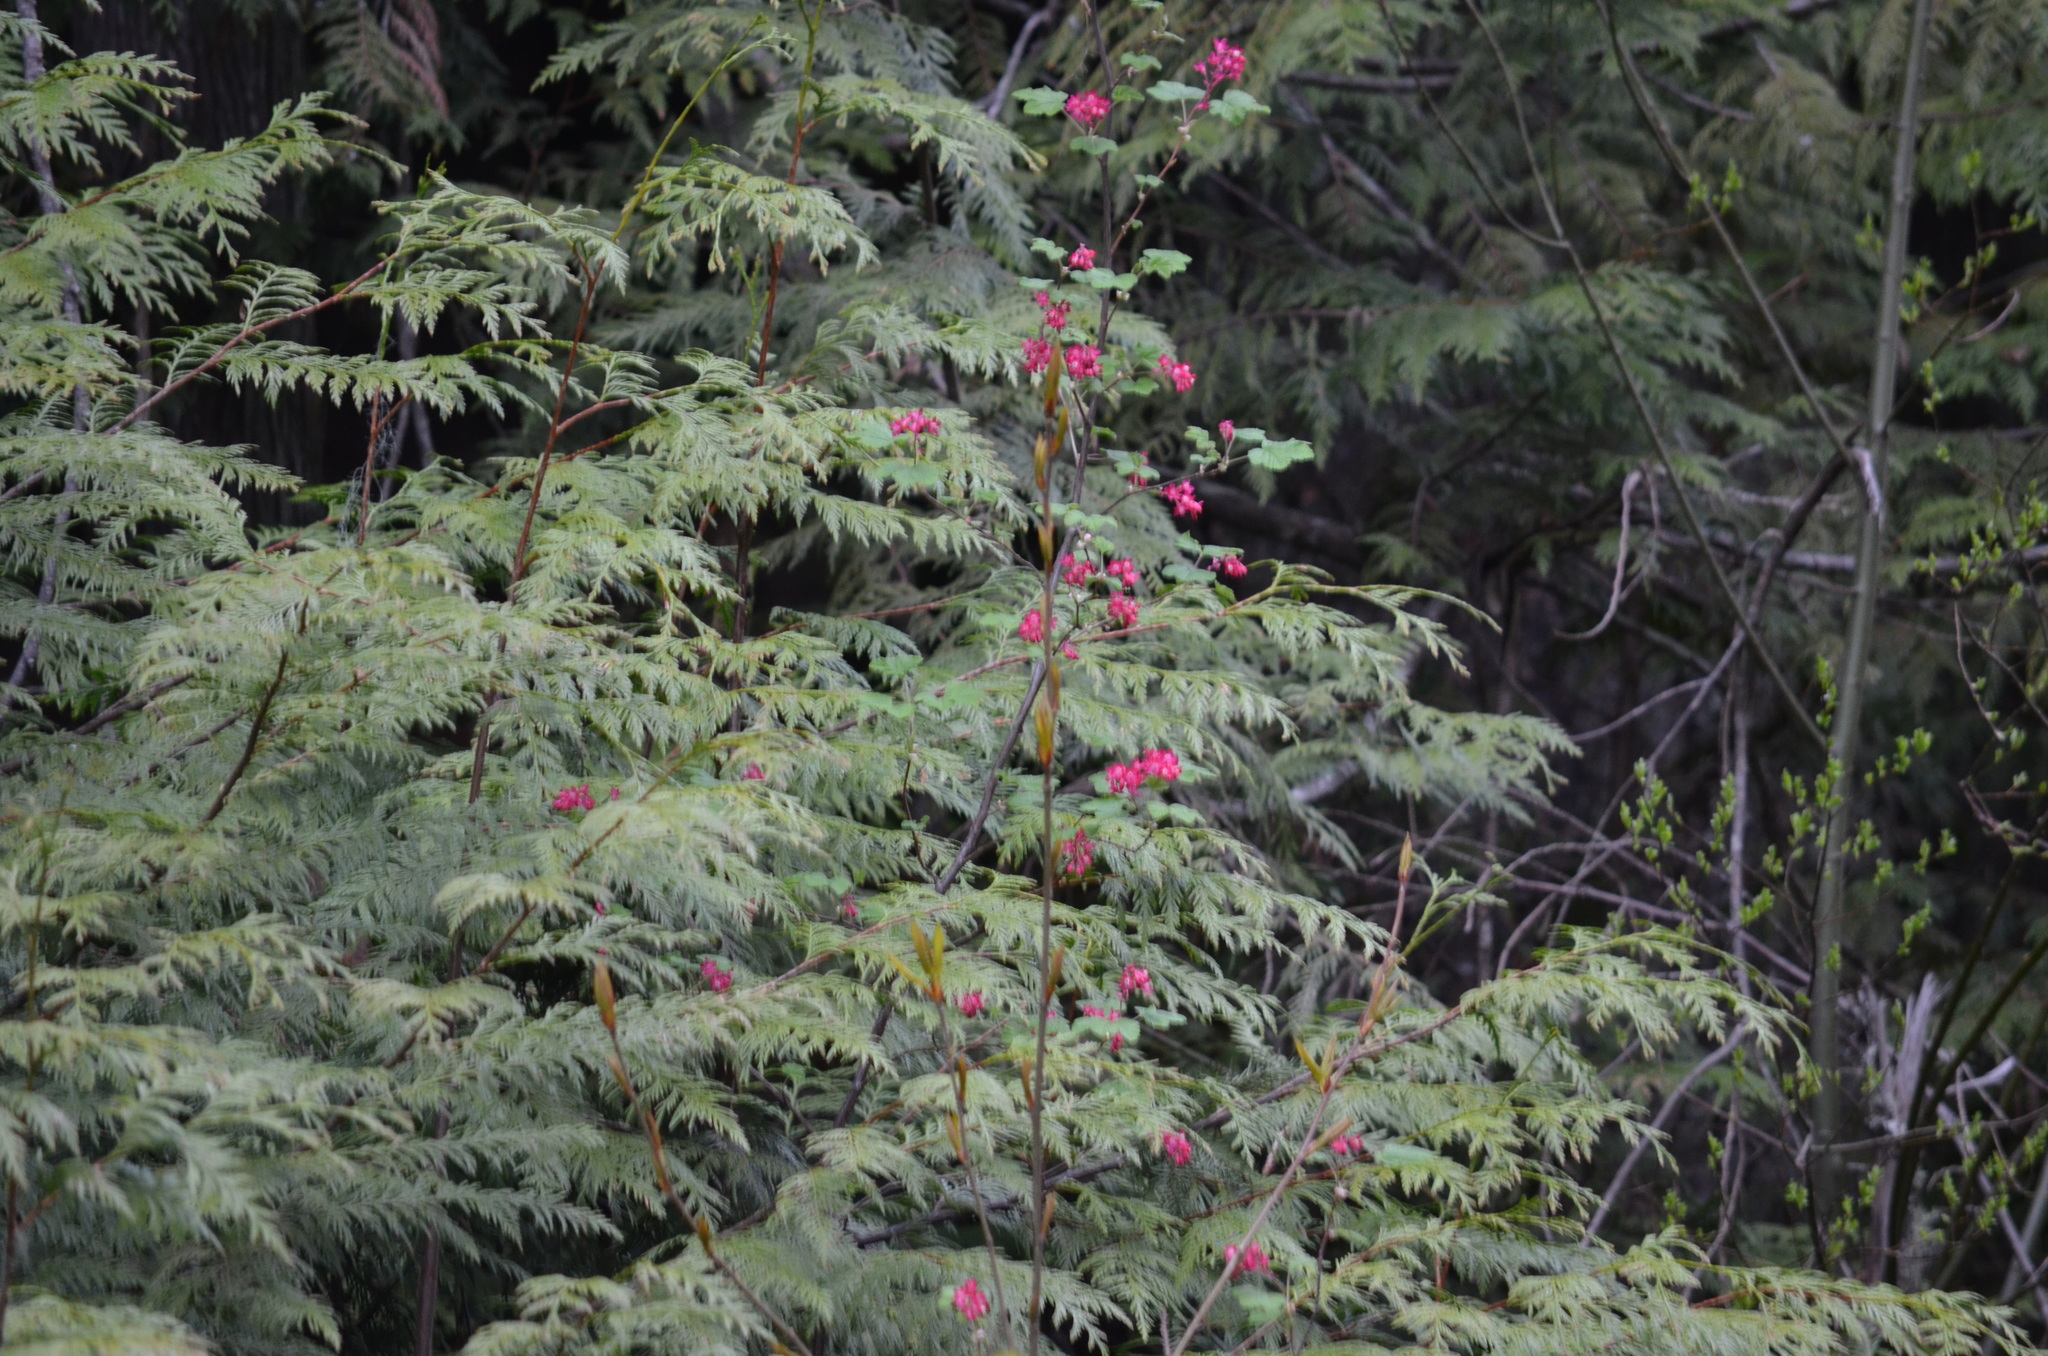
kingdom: Plantae
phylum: Tracheophyta
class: Magnoliopsida
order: Saxifragales
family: Grossulariaceae
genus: Ribes
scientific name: Ribes sanguineum
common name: Flowering currant
